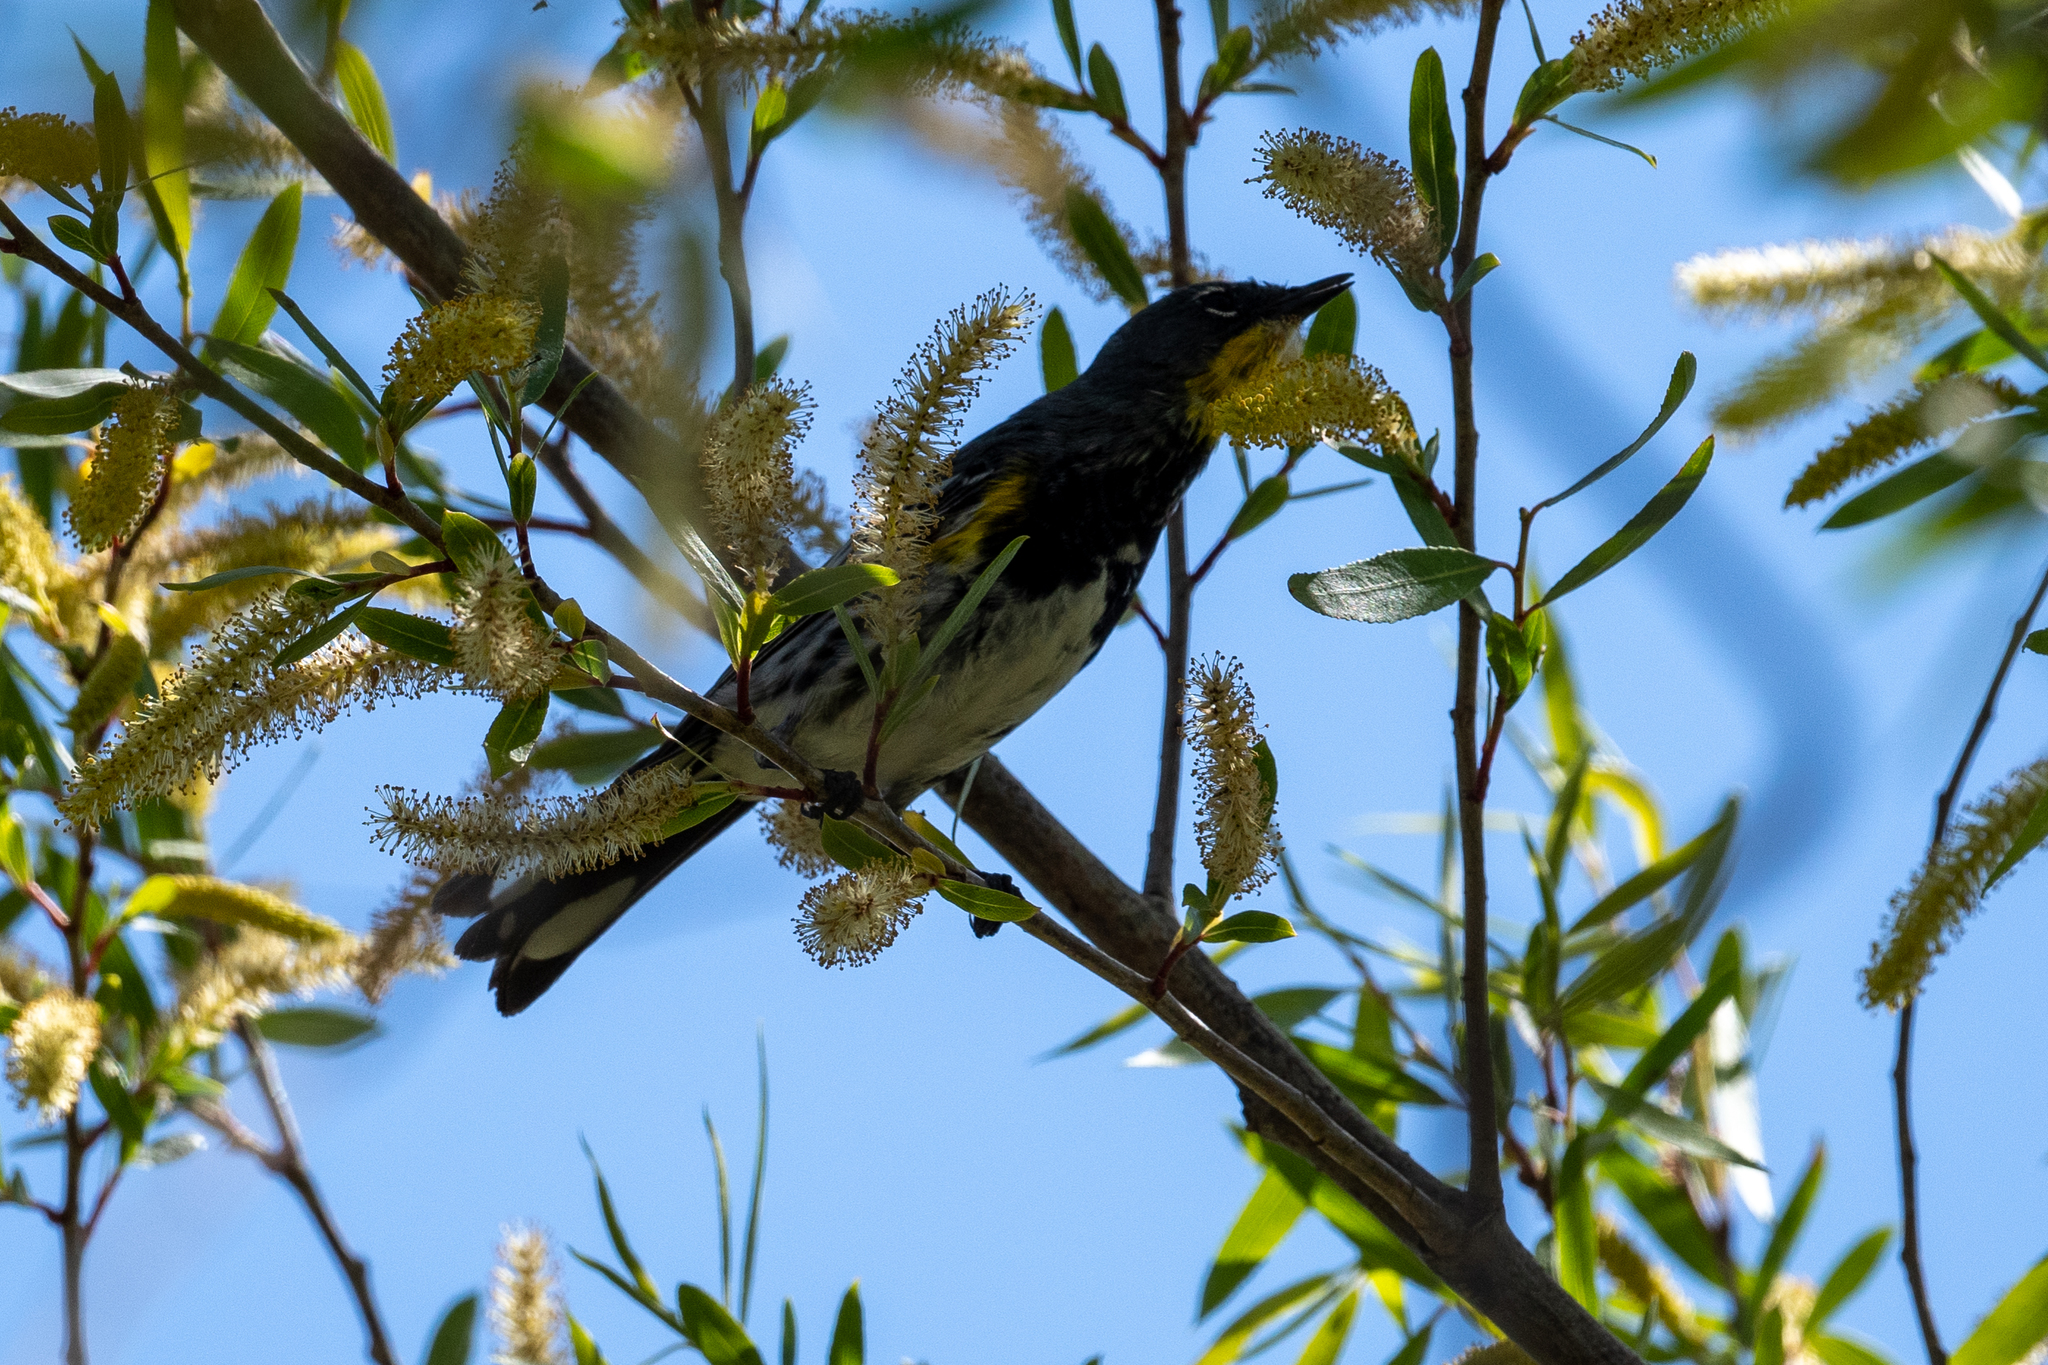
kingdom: Animalia
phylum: Chordata
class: Aves
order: Passeriformes
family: Parulidae
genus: Setophaga
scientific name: Setophaga coronata
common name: Myrtle warbler
